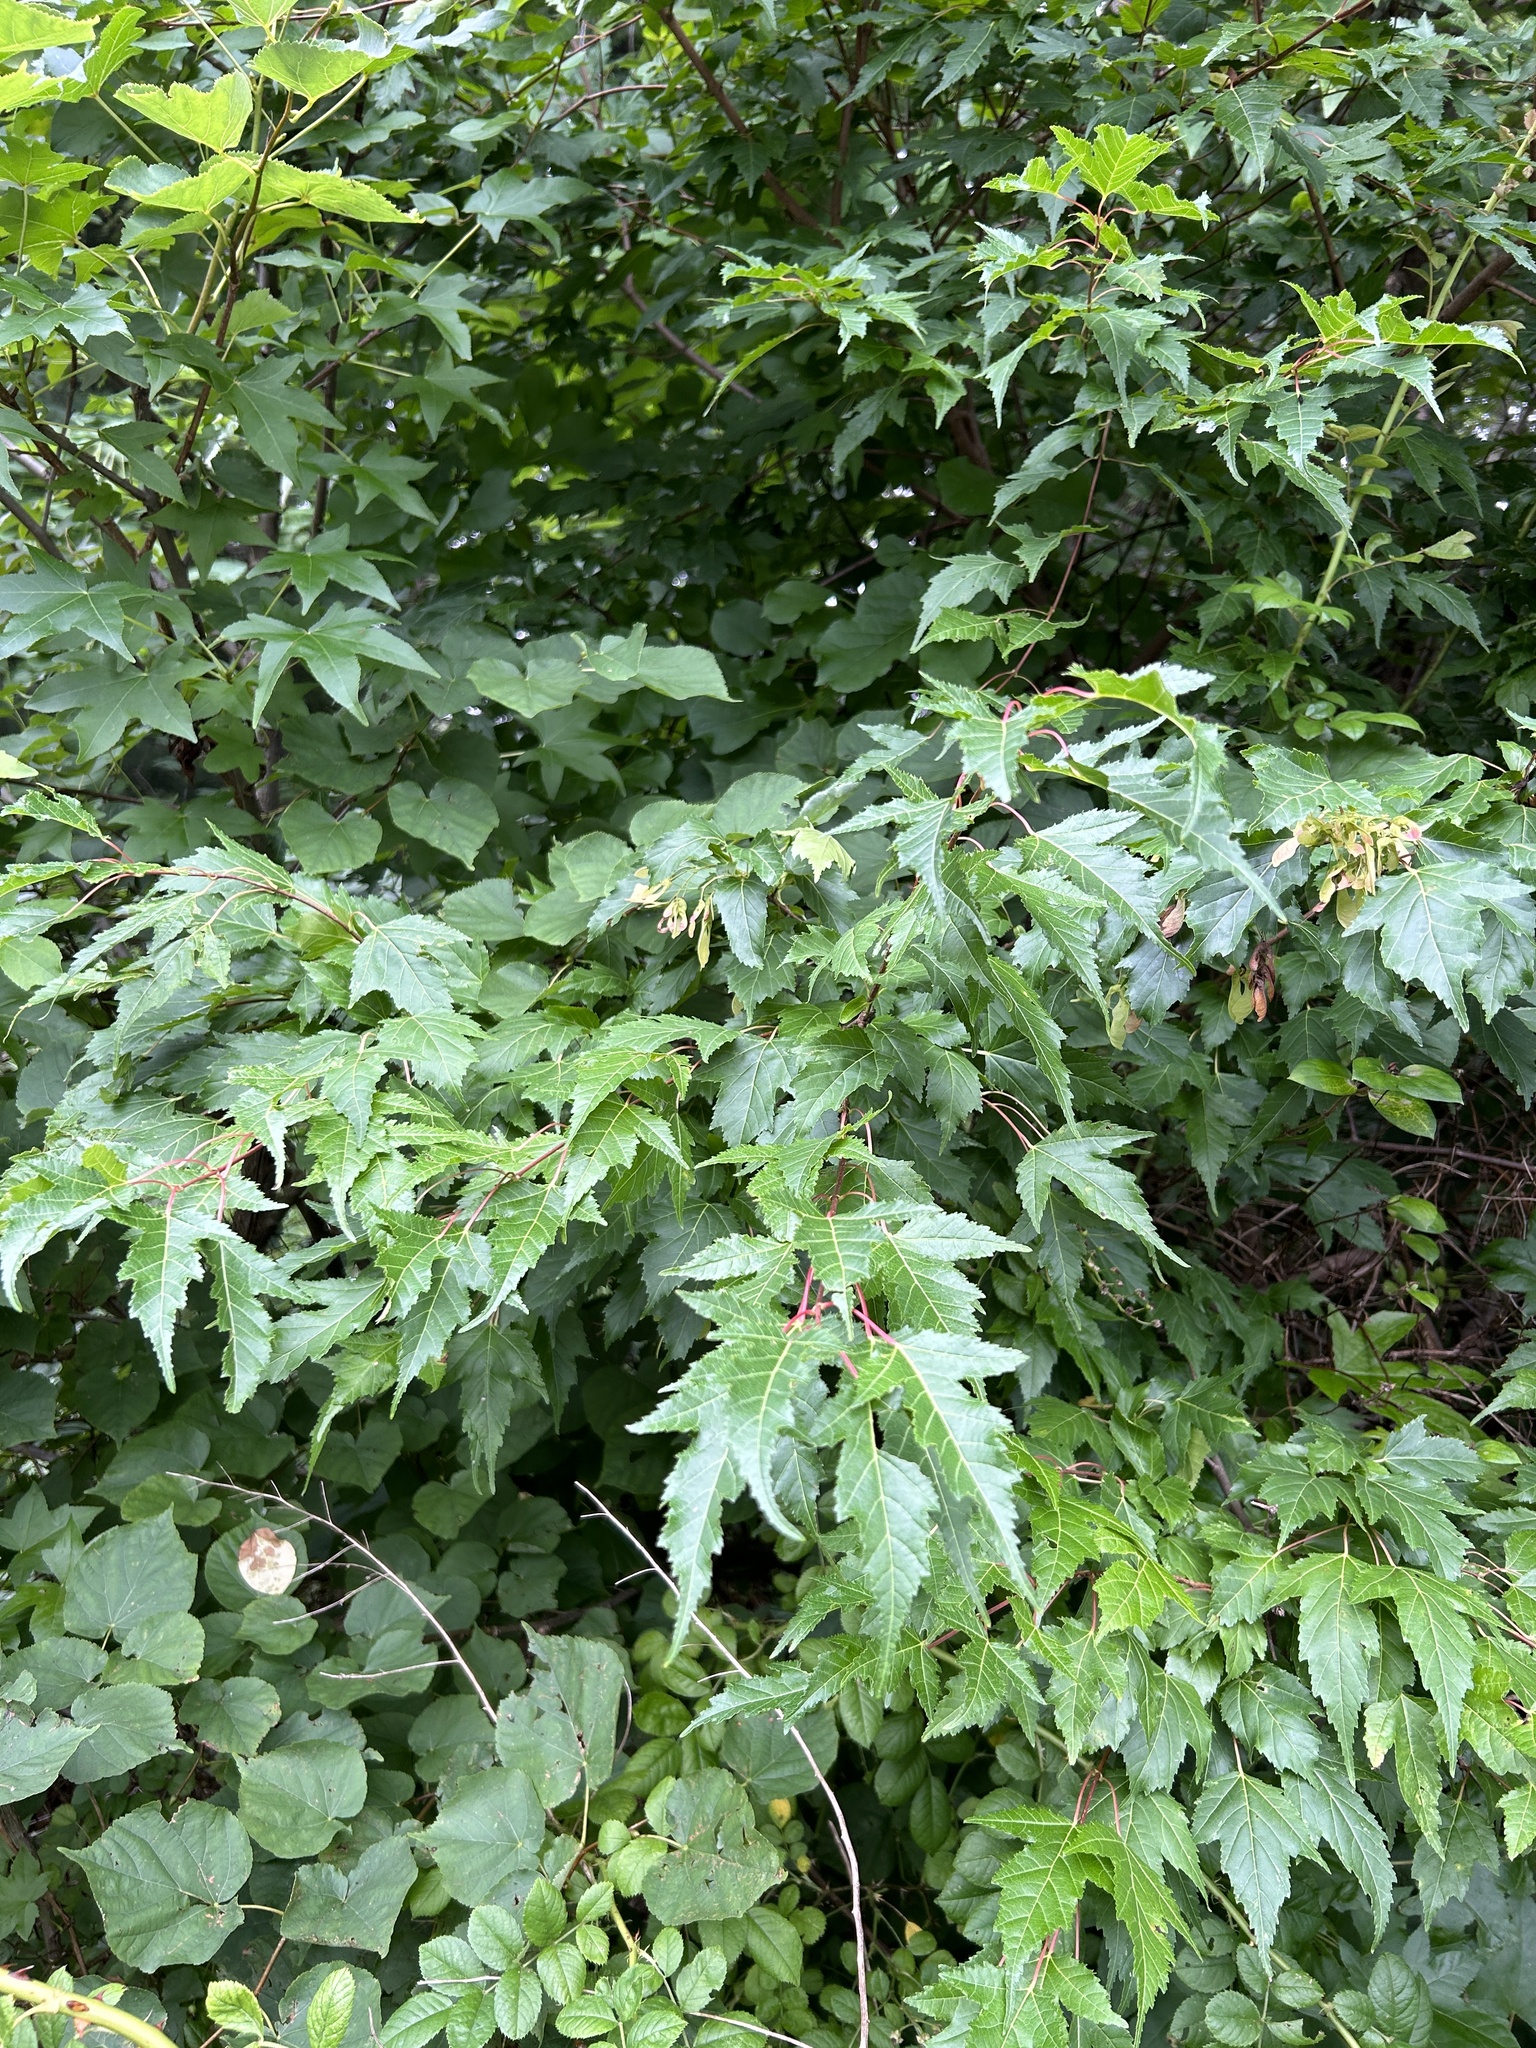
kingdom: Plantae
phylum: Tracheophyta
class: Magnoliopsida
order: Sapindales
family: Sapindaceae
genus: Acer
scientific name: Acer tataricum
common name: Tartar maple
